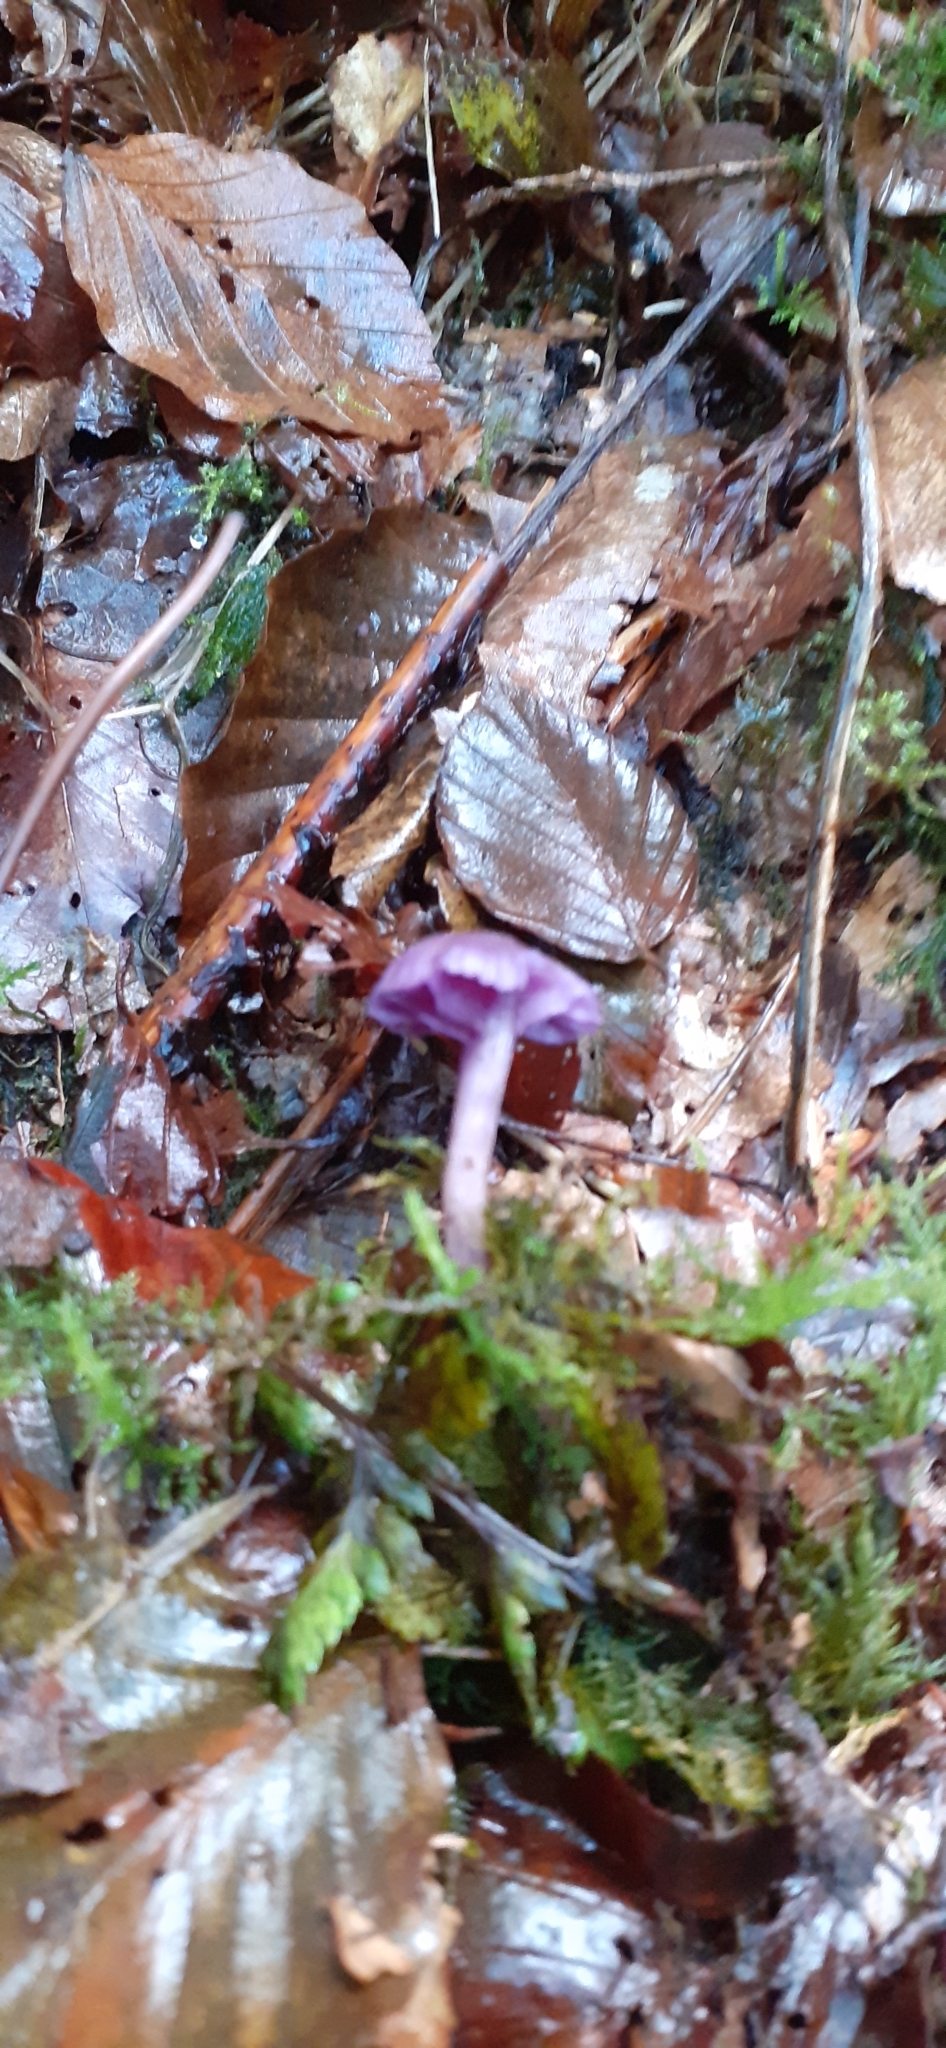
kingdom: Fungi
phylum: Basidiomycota
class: Agaricomycetes
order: Agaricales
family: Hydnangiaceae
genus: Laccaria
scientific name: Laccaria amethystina
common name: Amethyst deceiver
